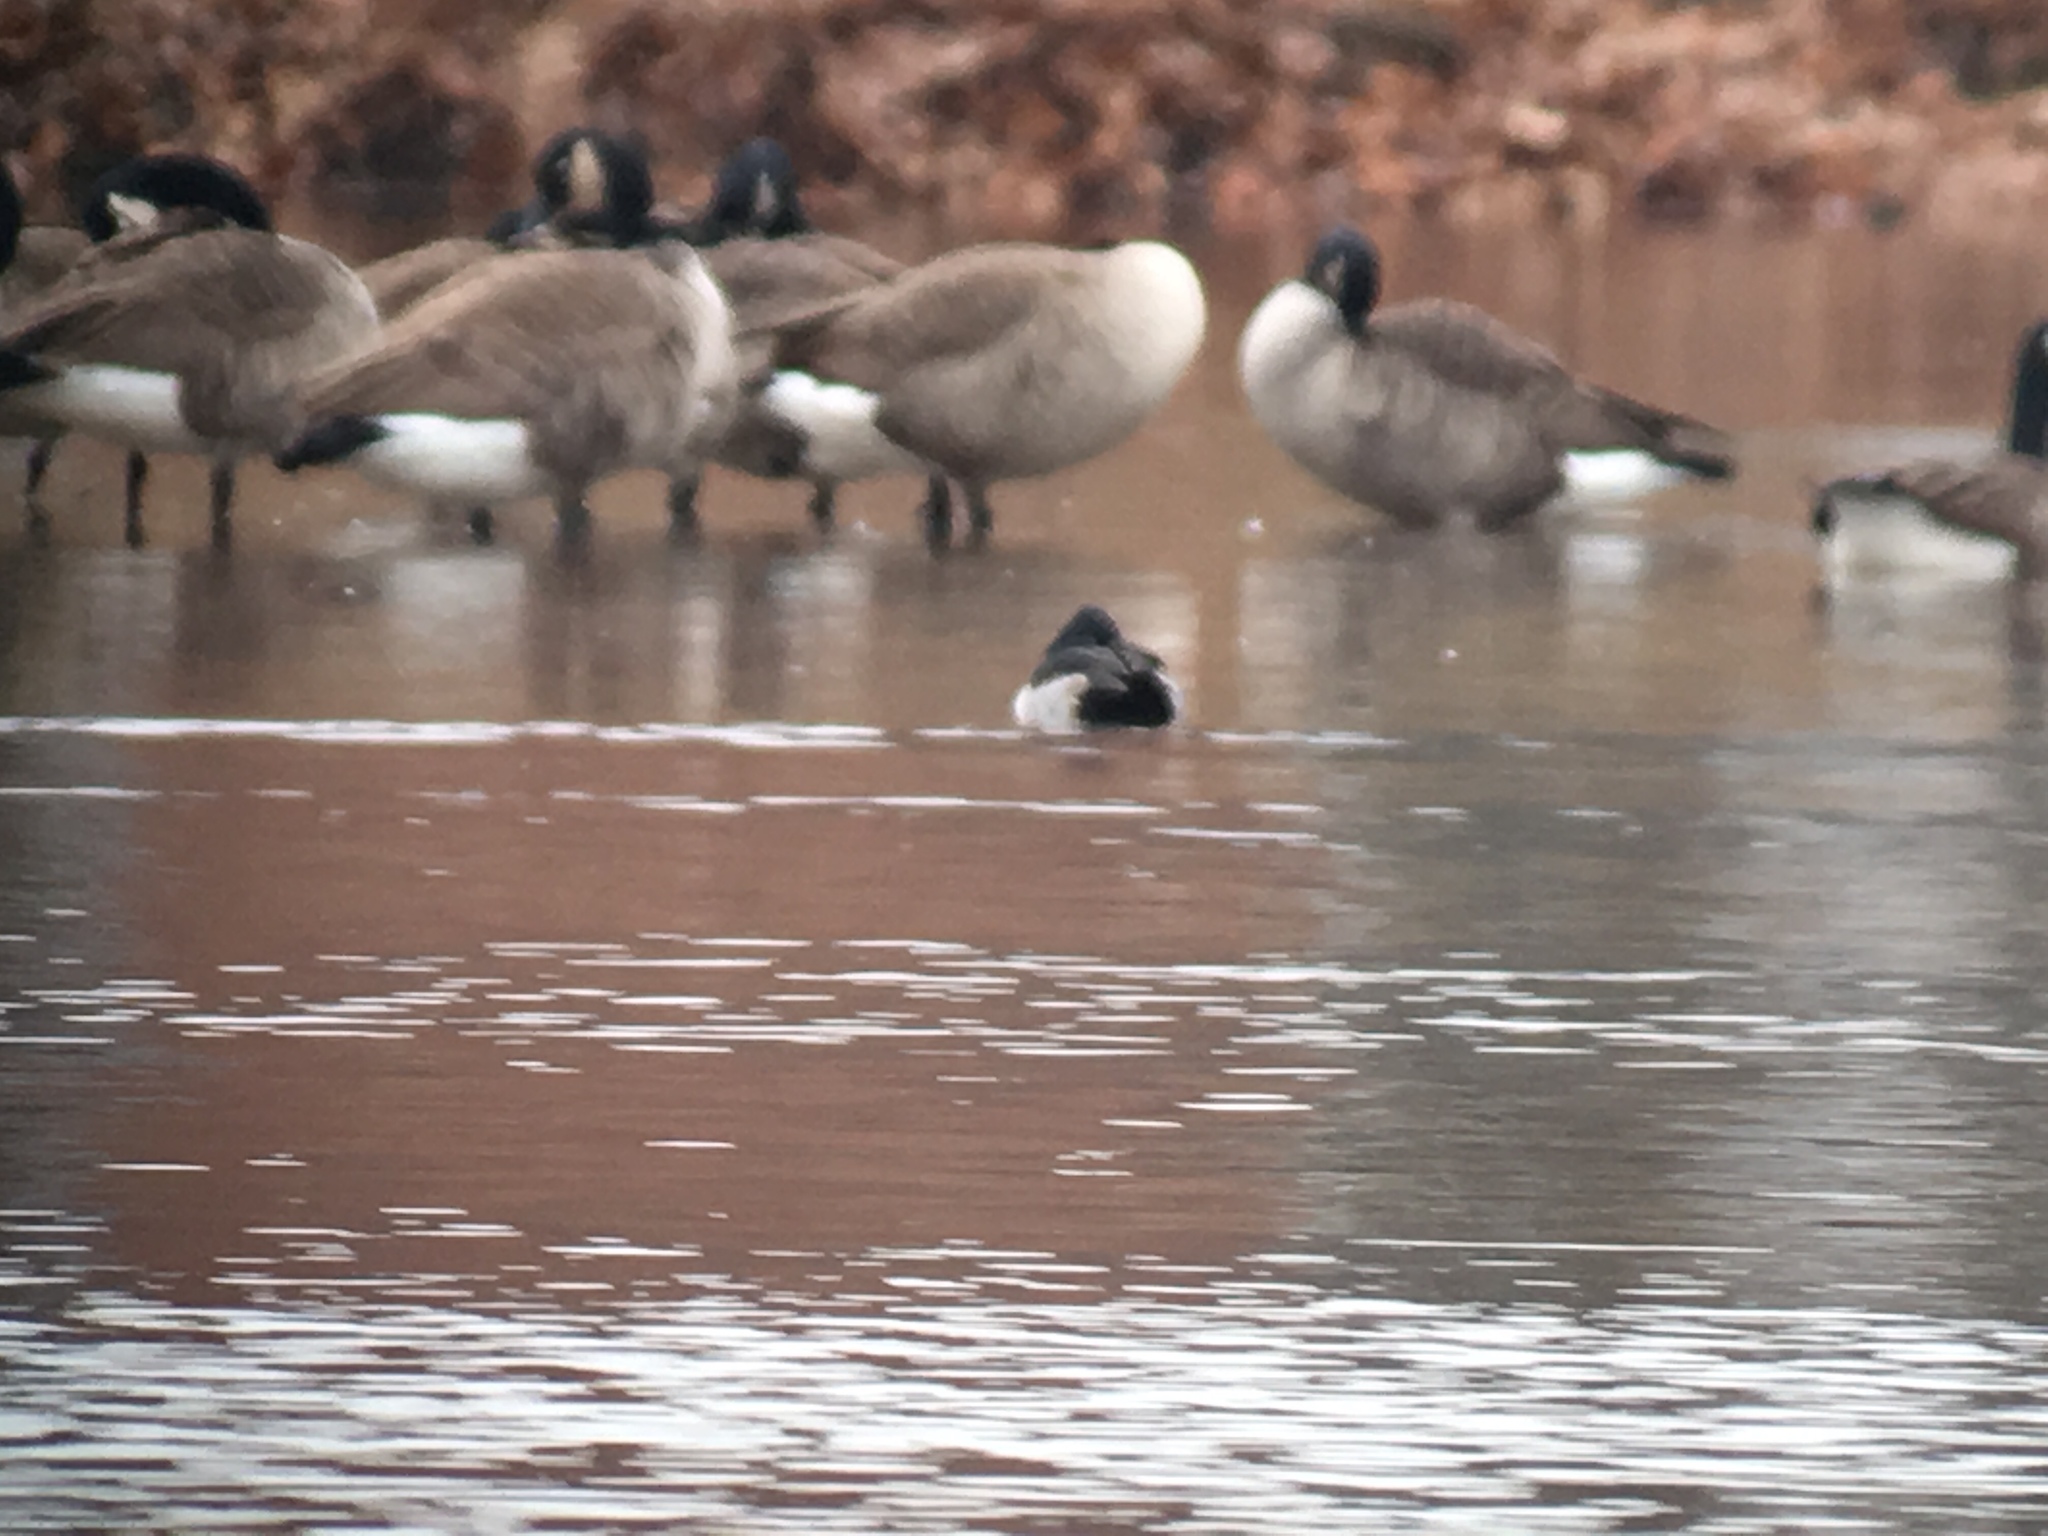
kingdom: Animalia
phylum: Chordata
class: Aves
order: Anseriformes
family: Anatidae
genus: Branta
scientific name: Branta canadensis
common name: Canada goose
